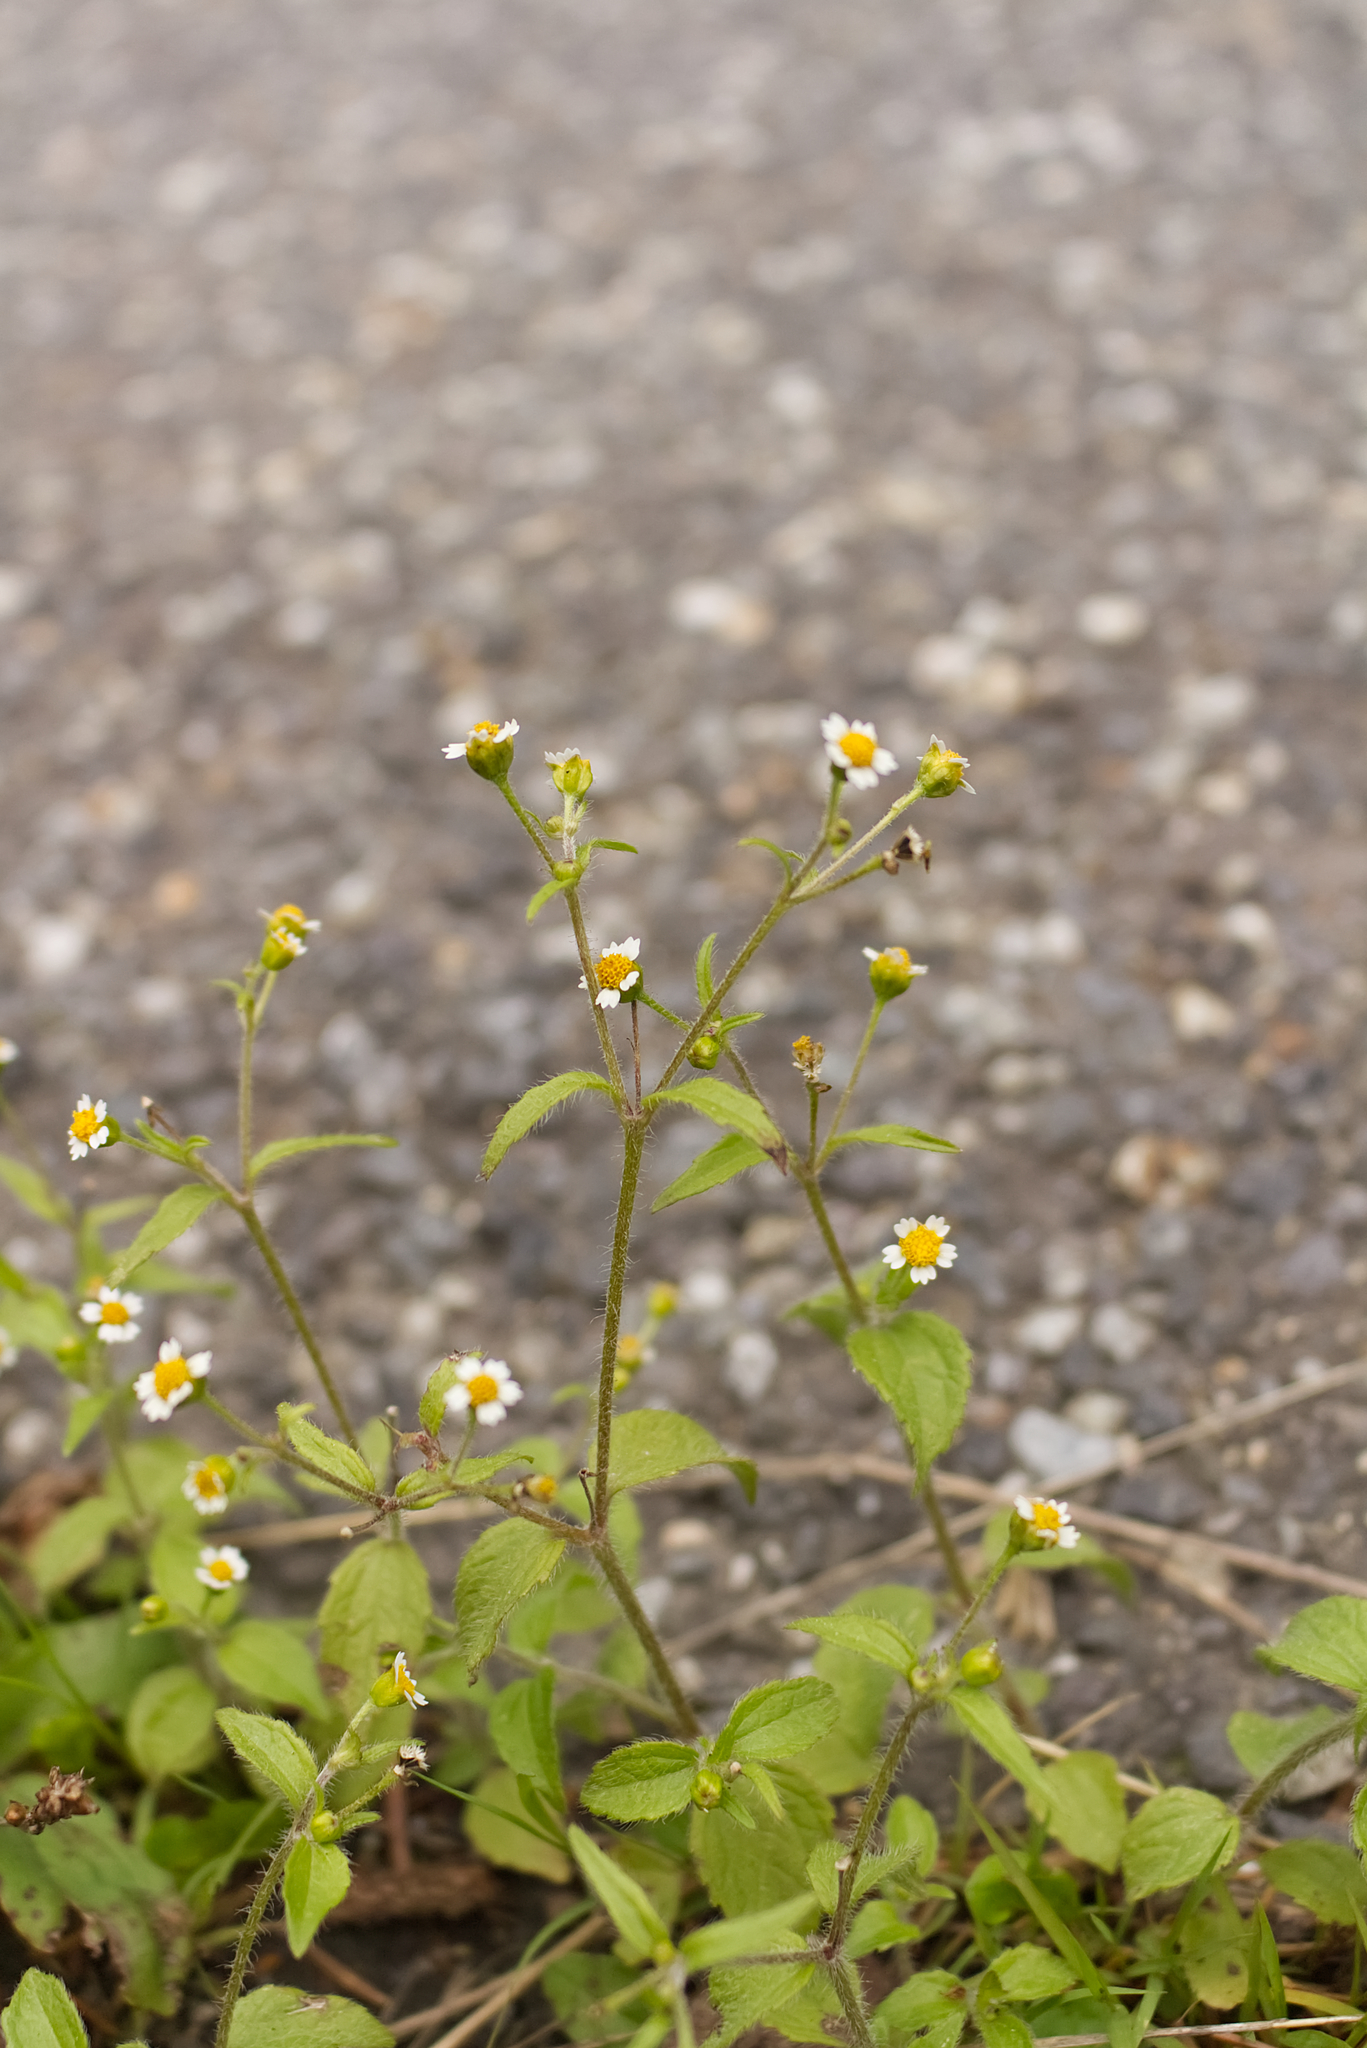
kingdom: Plantae
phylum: Tracheophyta
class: Magnoliopsida
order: Asterales
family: Asteraceae
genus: Galinsoga
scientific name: Galinsoga quadriradiata
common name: Shaggy soldier
